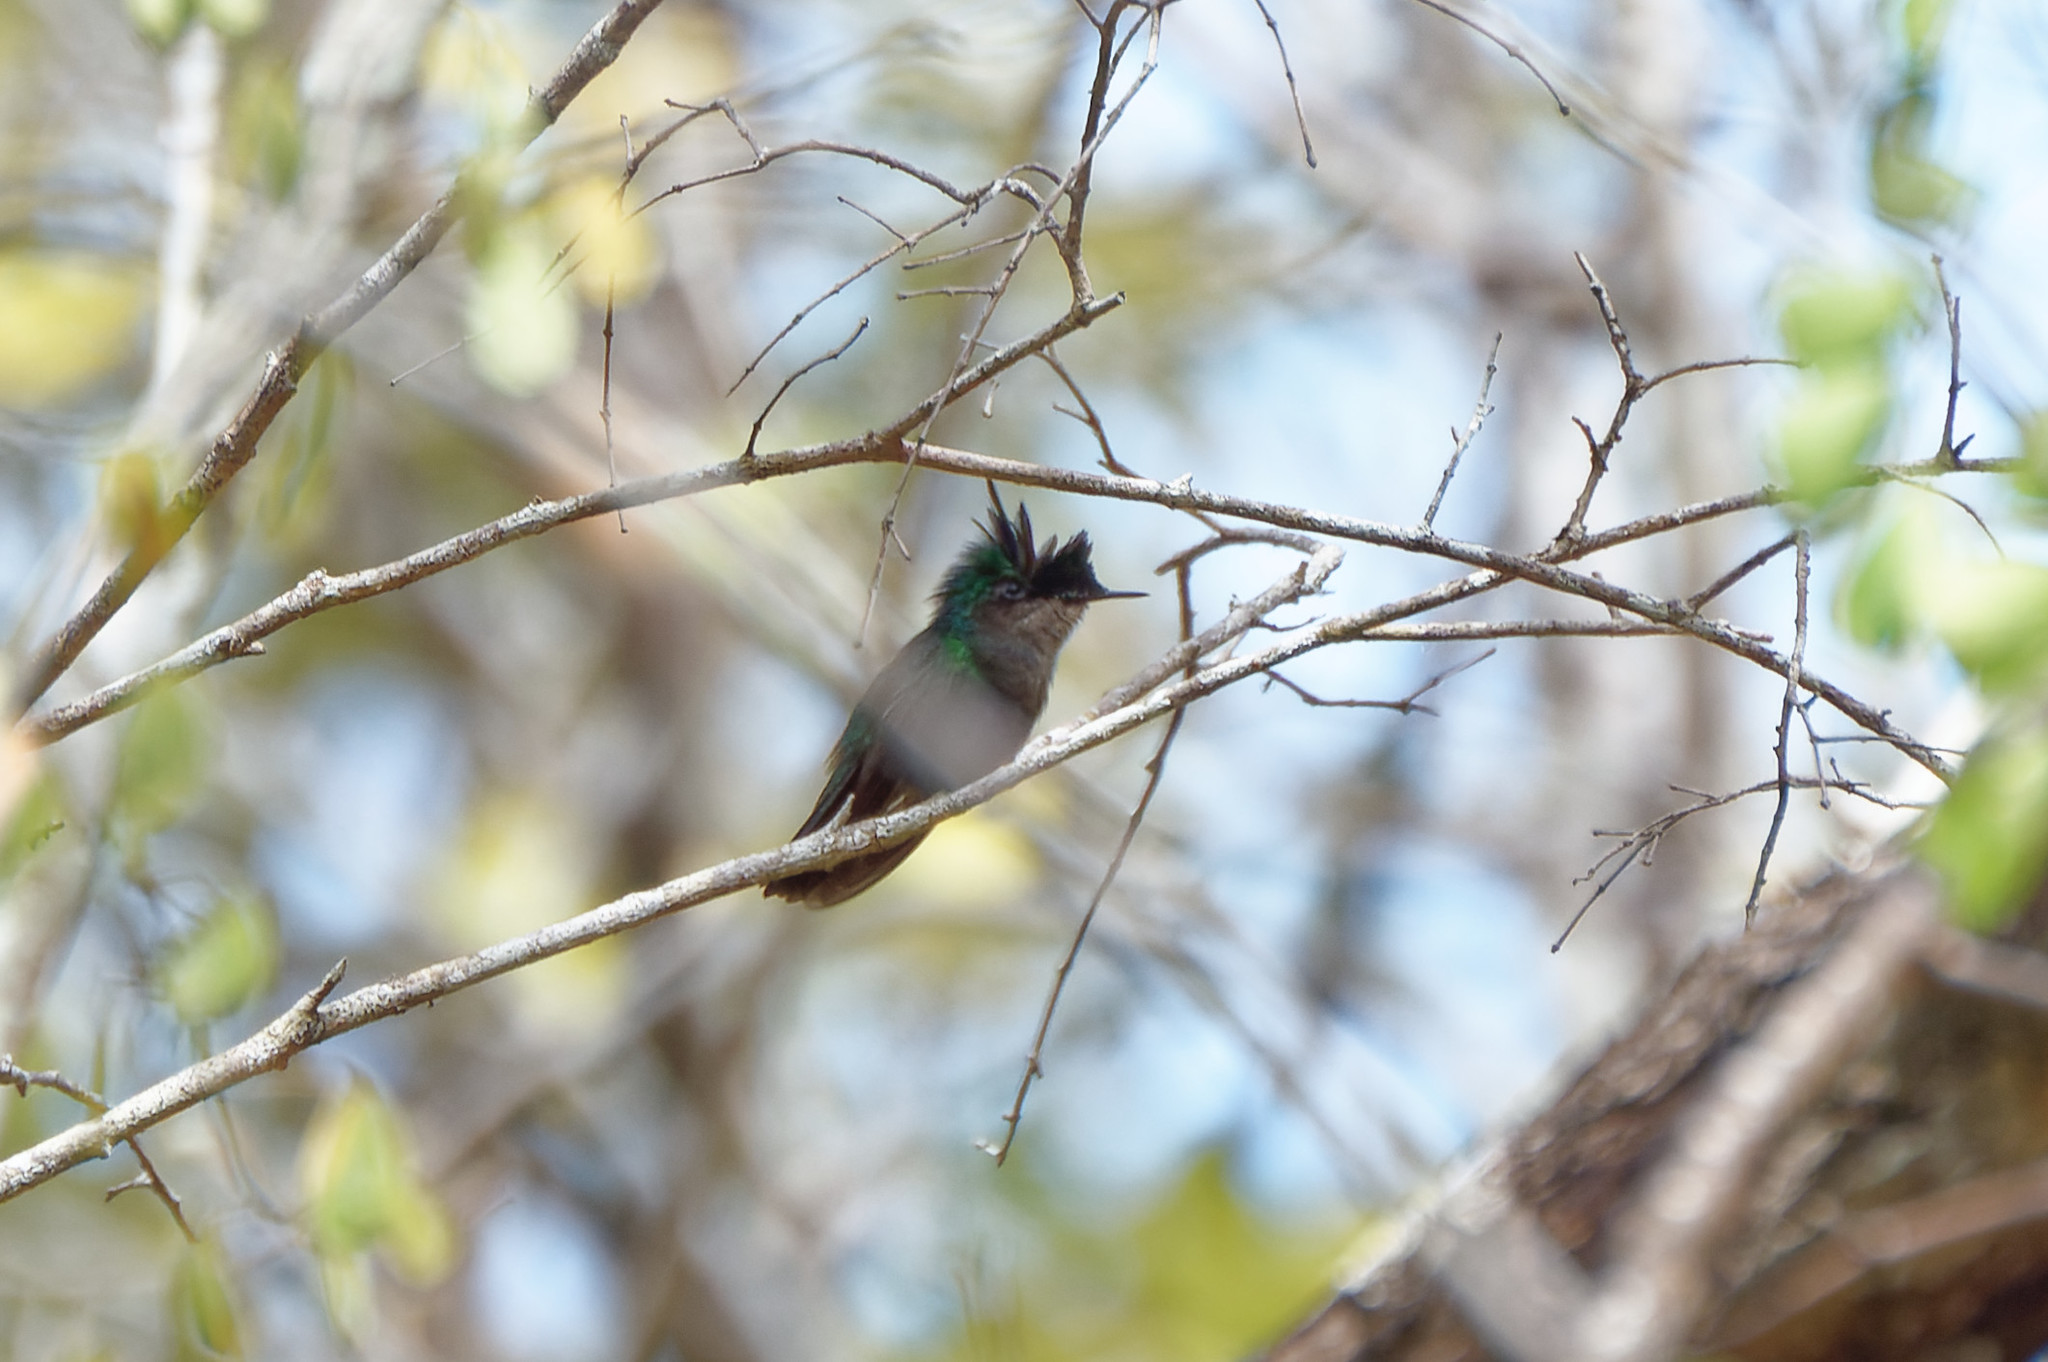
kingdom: Animalia
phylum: Chordata
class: Aves
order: Apodiformes
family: Trochilidae
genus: Orthorhyncus
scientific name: Orthorhyncus cristatus
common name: Antillean crested hummingbird
